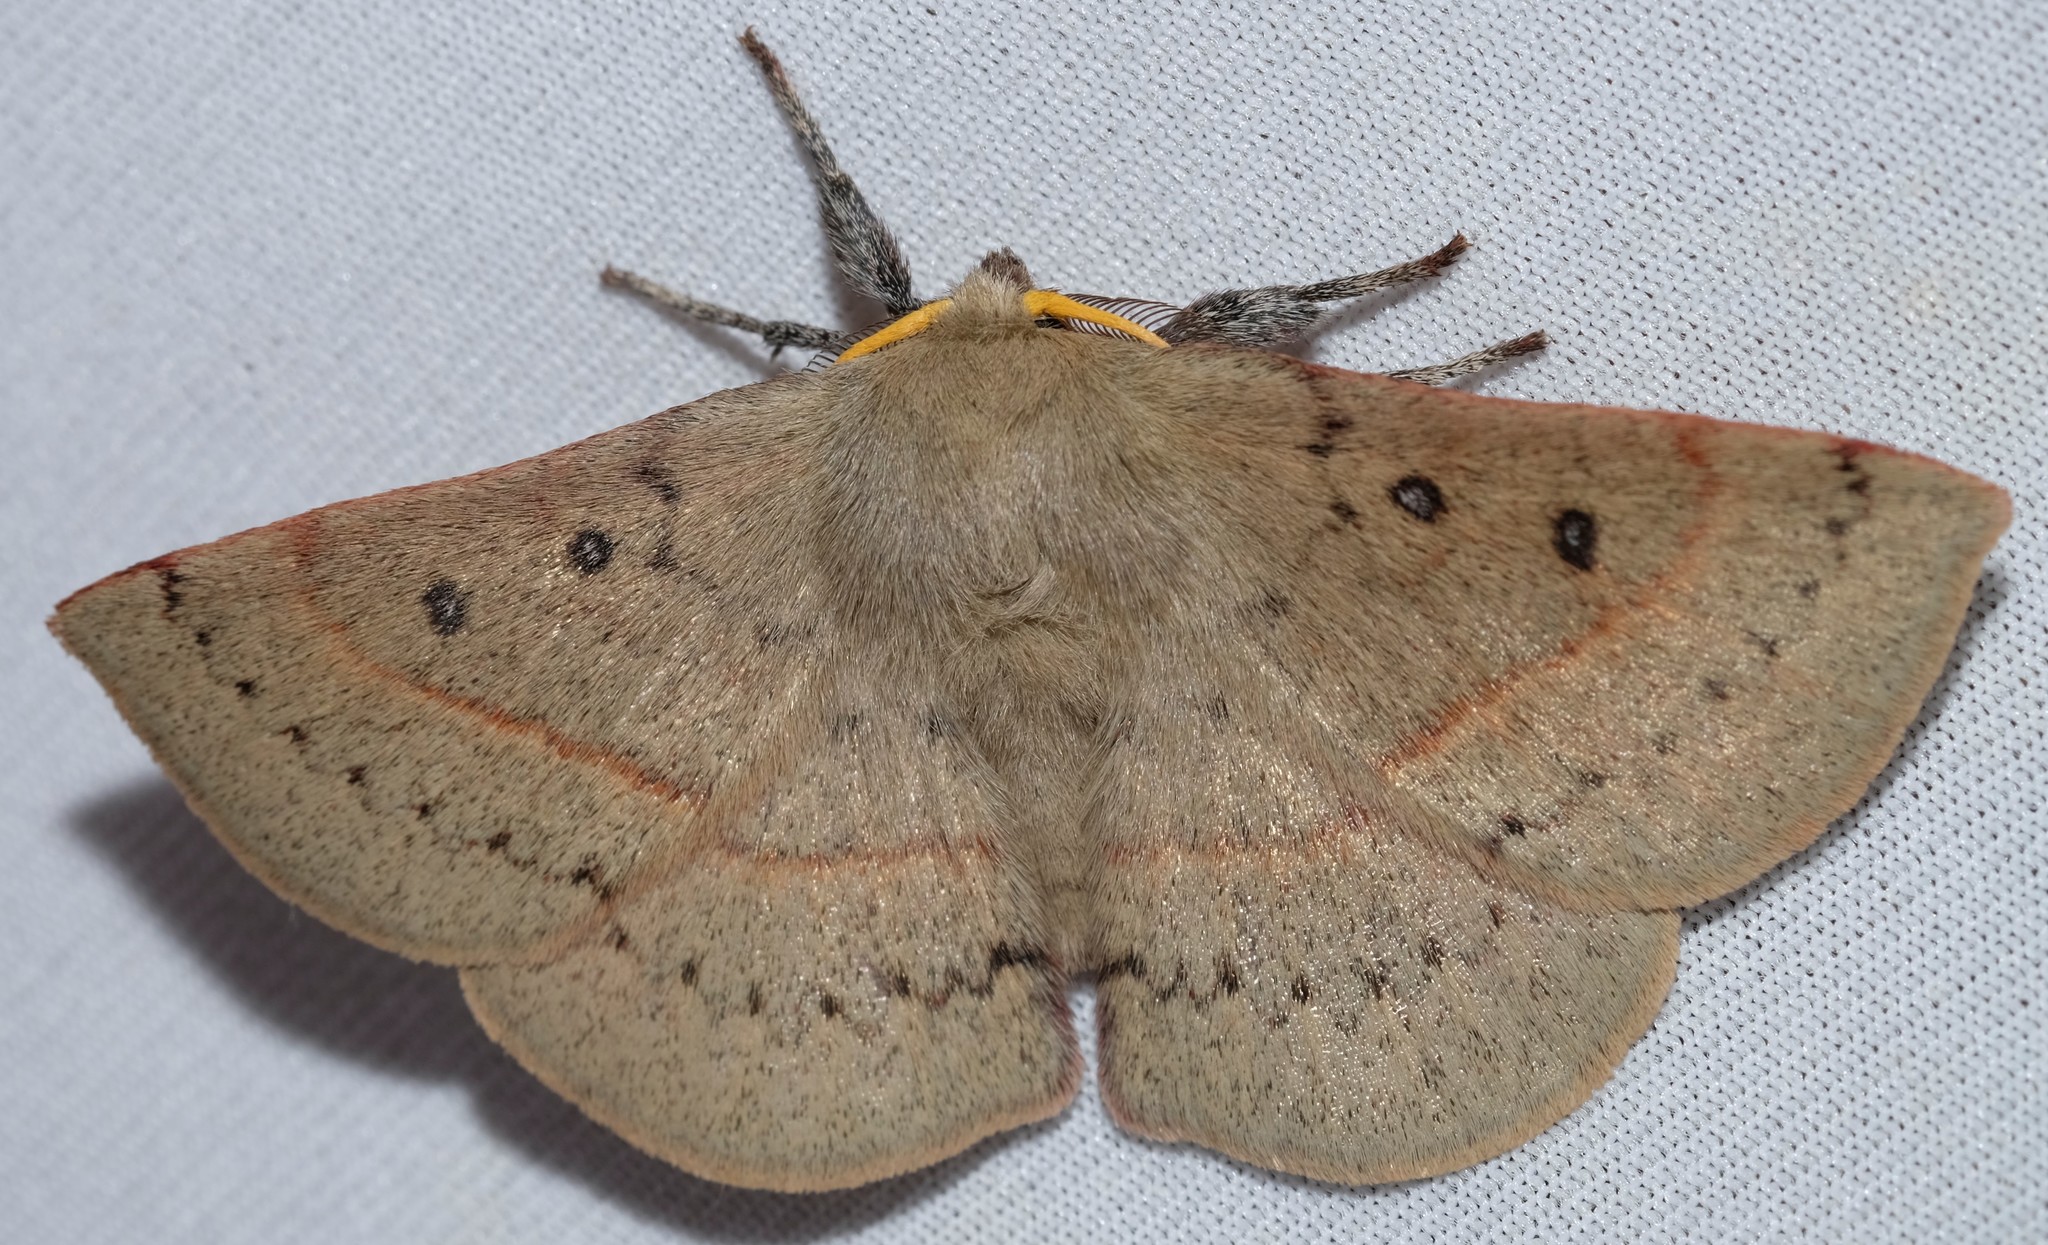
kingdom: Animalia
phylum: Arthropoda
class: Insecta
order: Lepidoptera
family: Anthelidae
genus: Anthela
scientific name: Anthela acuta
